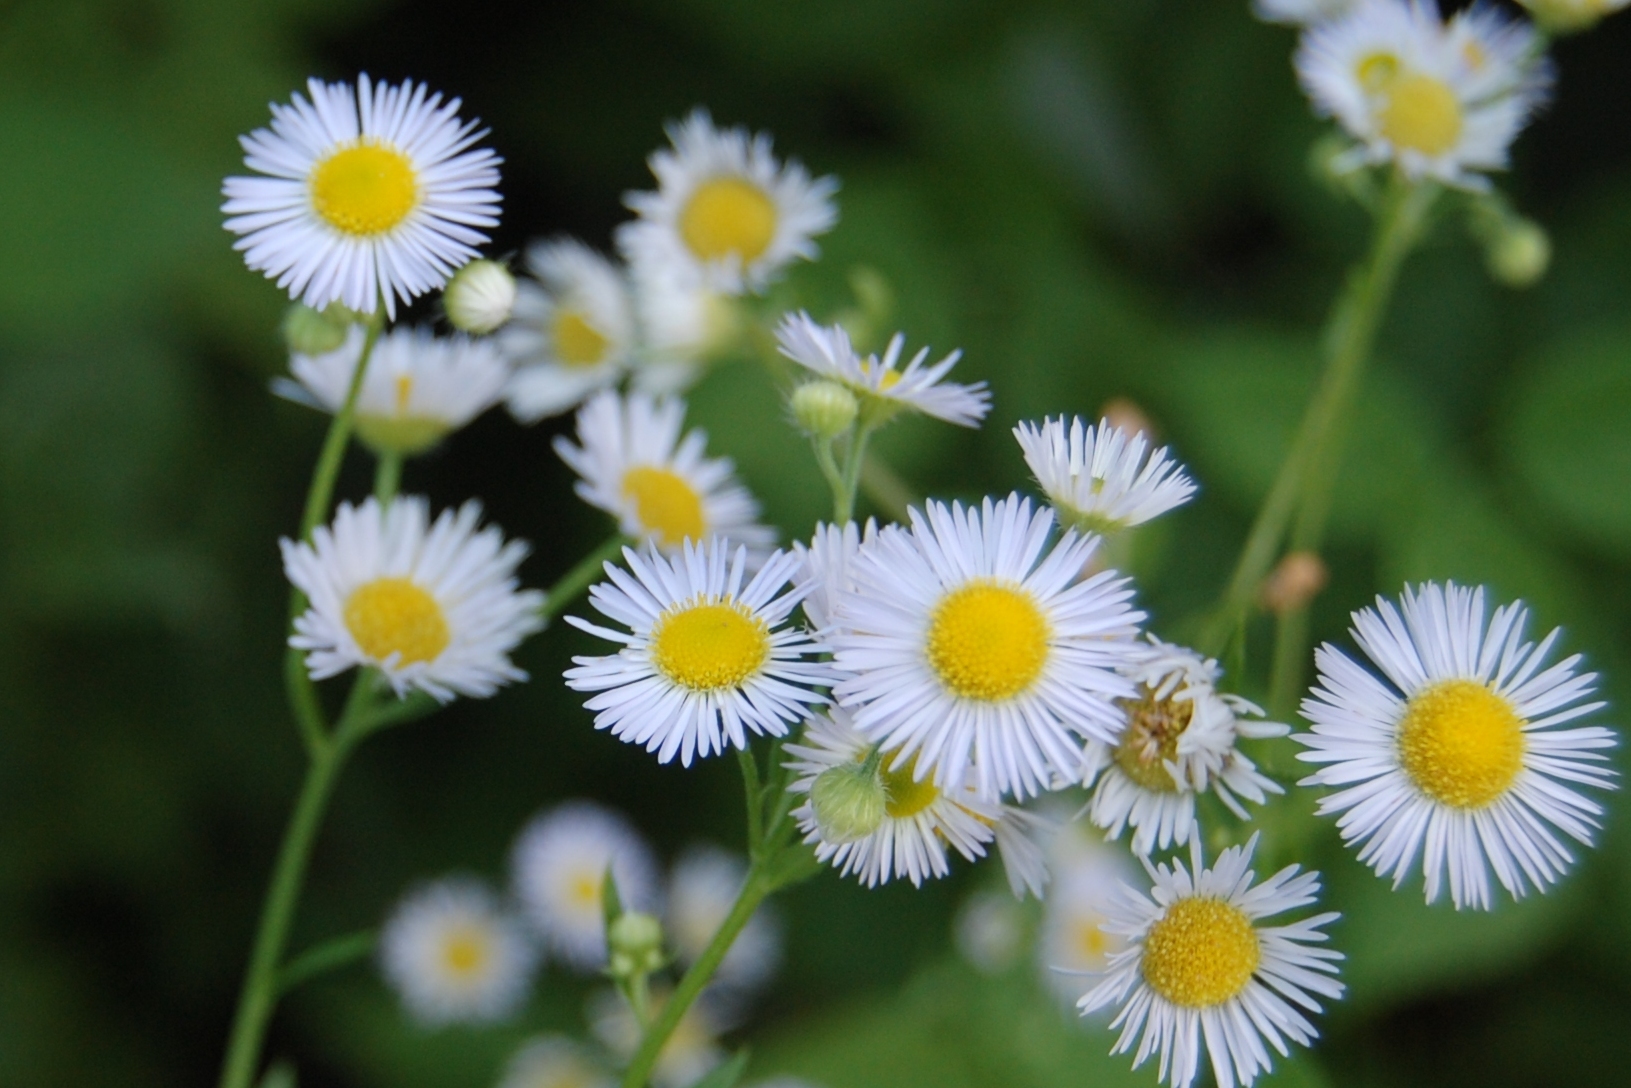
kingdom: Plantae
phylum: Tracheophyta
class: Magnoliopsida
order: Asterales
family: Asteraceae
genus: Erigeron
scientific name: Erigeron strigosus
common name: Common eastern fleabane
